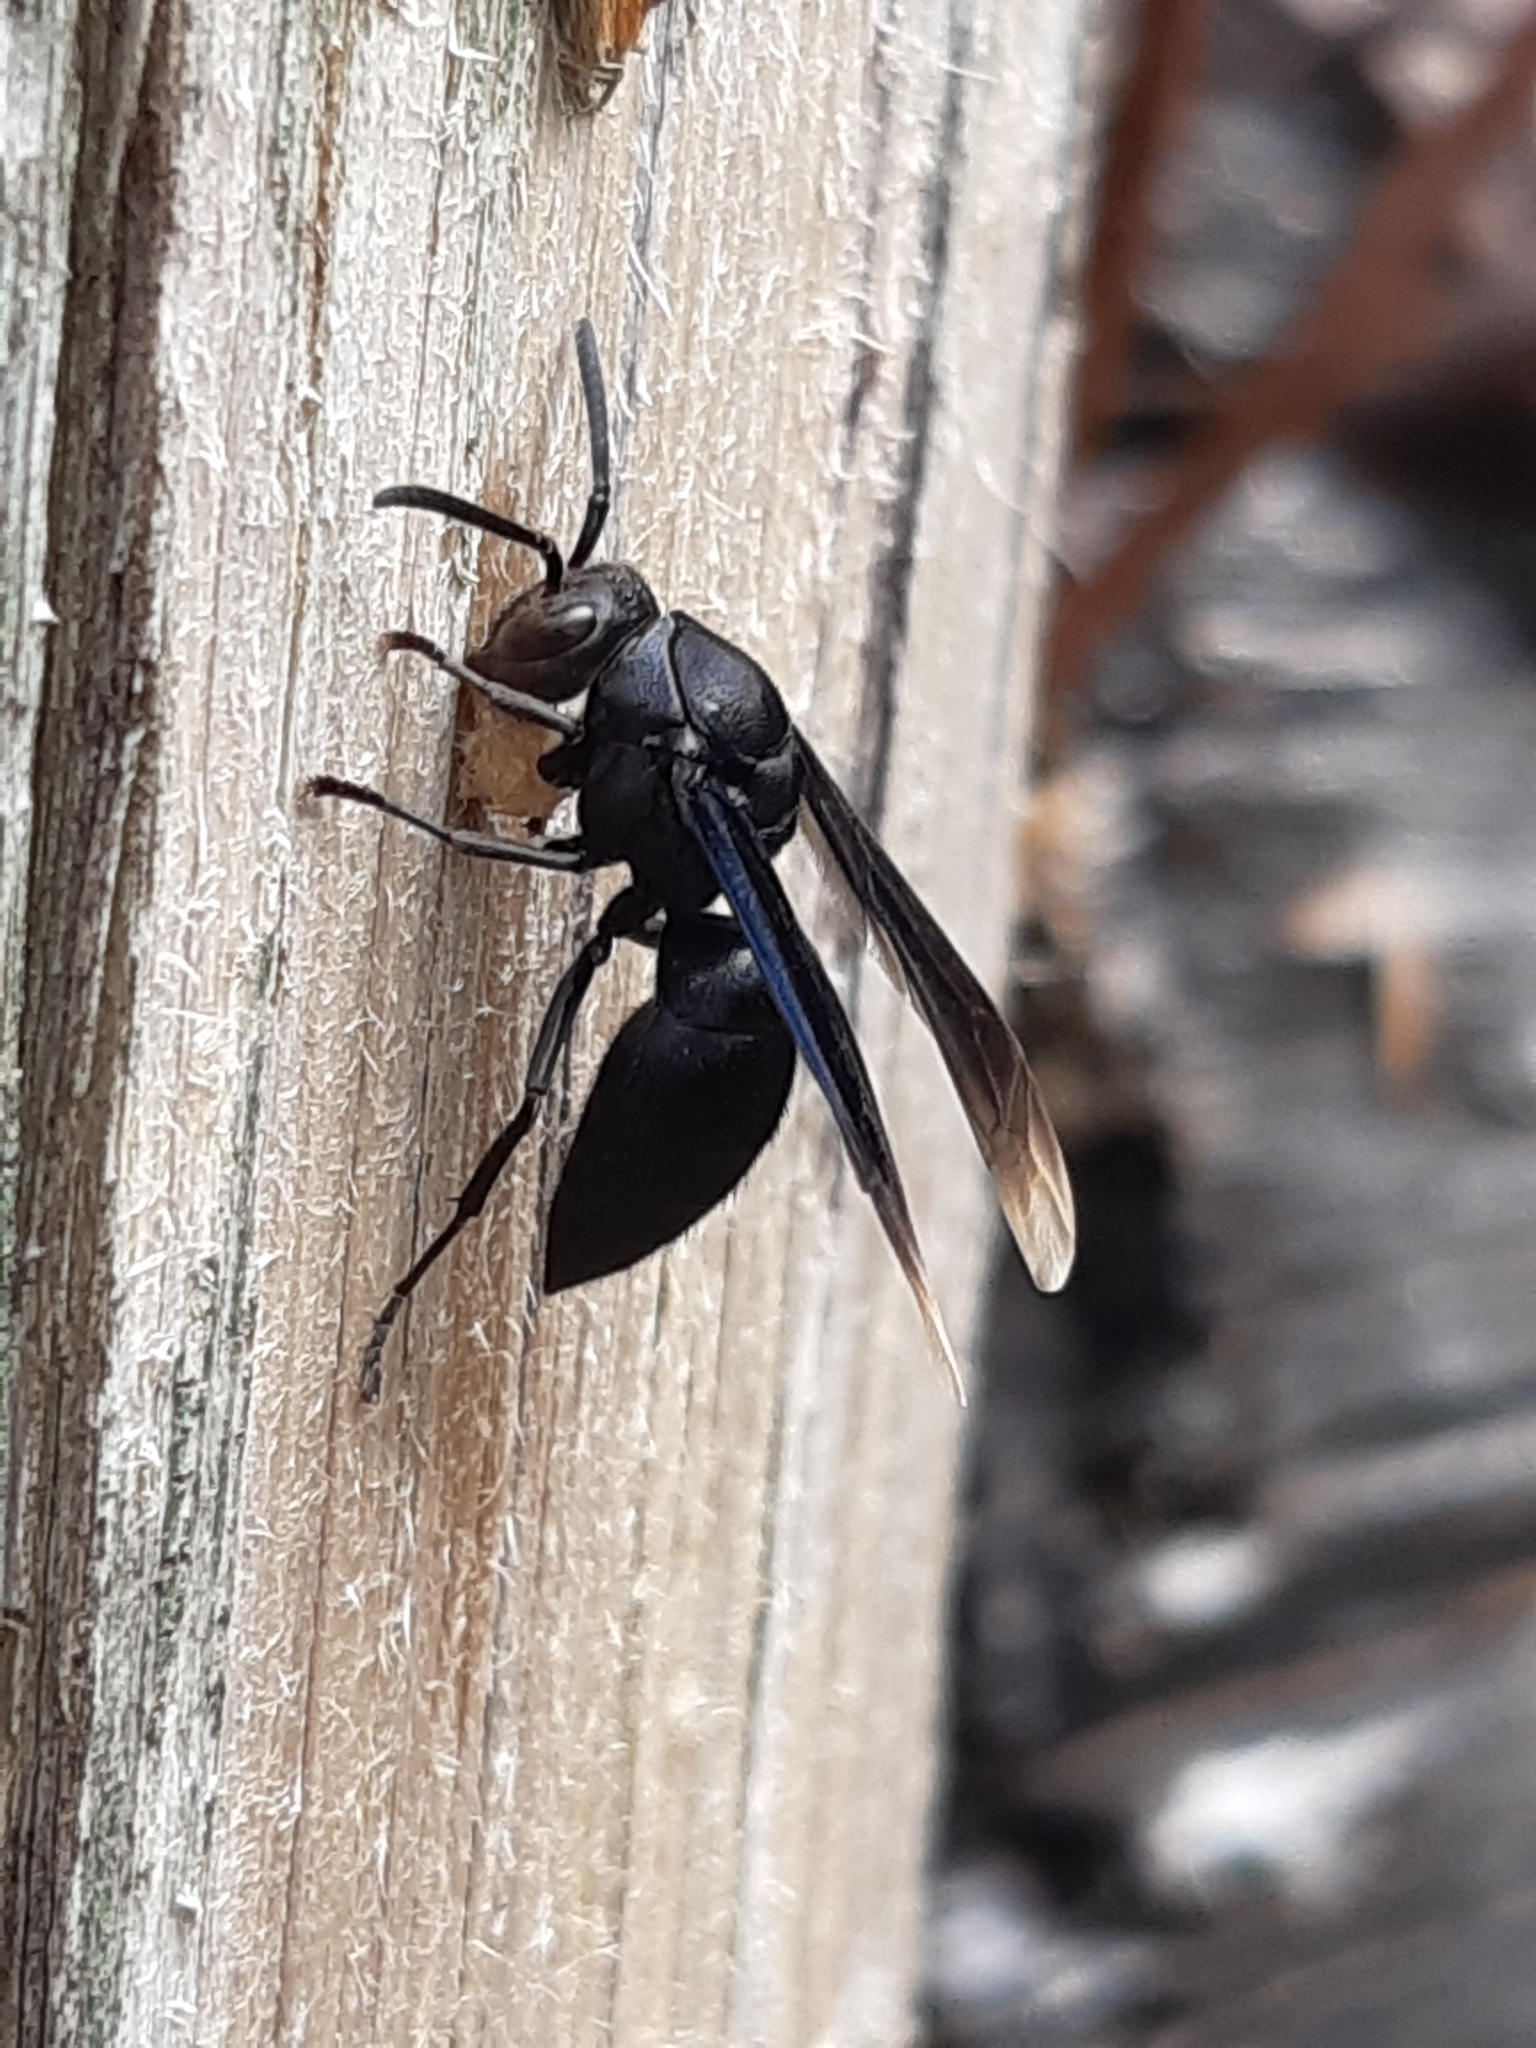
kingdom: Animalia
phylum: Arthropoda
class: Insecta
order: Hymenoptera
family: Vespidae
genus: Parachartergus
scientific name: Parachartergus fraternus
